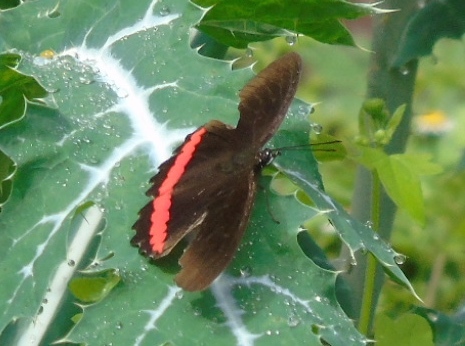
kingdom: Animalia
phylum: Arthropoda
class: Insecta
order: Lepidoptera
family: Nymphalidae
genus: Biblis
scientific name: Biblis
